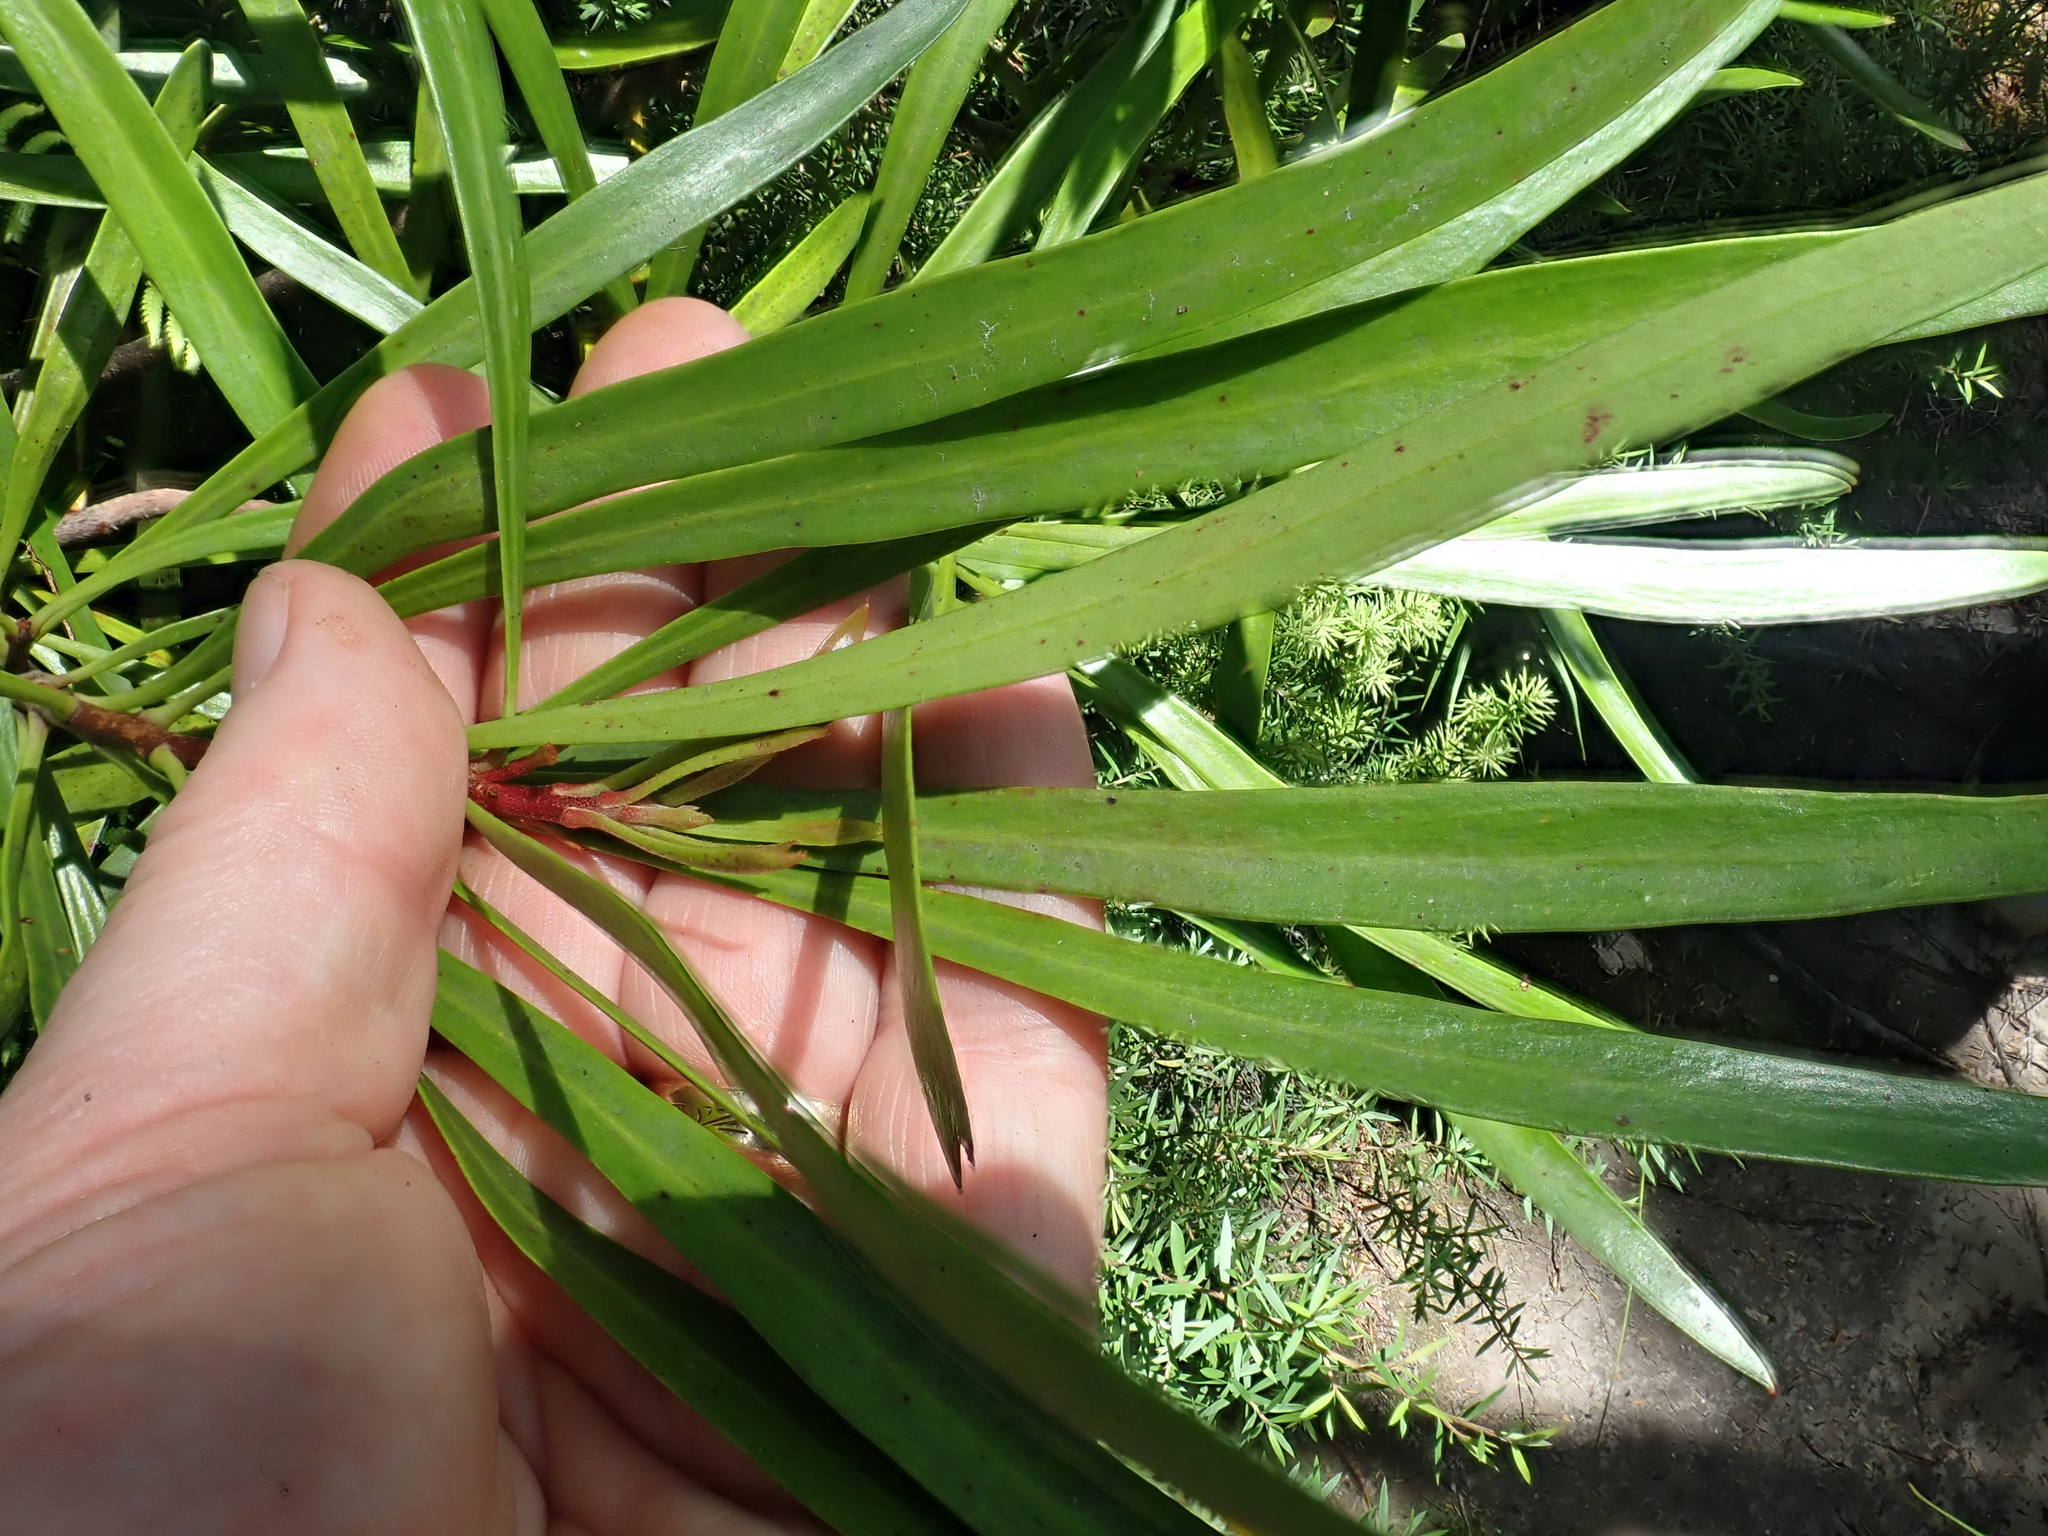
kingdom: Plantae
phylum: Tracheophyta
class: Magnoliopsida
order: Proteales
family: Proteaceae
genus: Toronia
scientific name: Toronia toru
